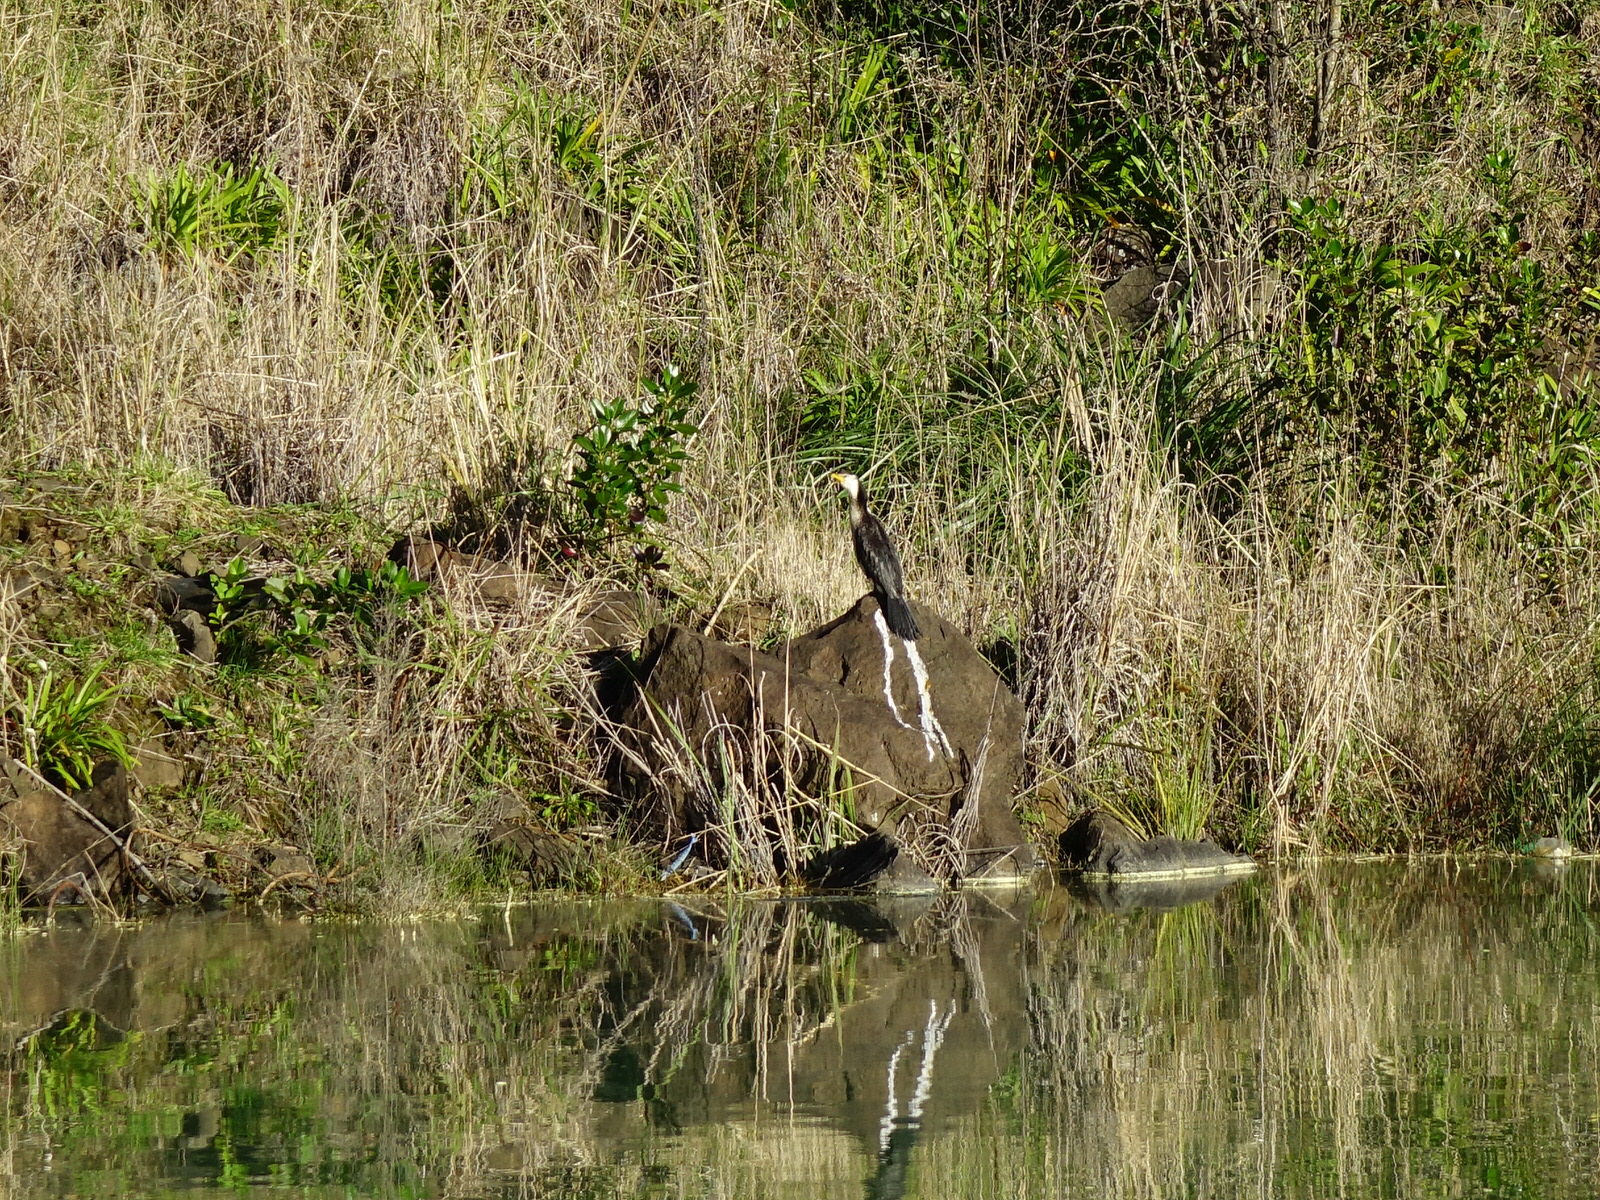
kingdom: Animalia
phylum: Chordata
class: Aves
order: Suliformes
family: Phalacrocoracidae
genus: Microcarbo
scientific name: Microcarbo melanoleucos
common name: Little pied cormorant
